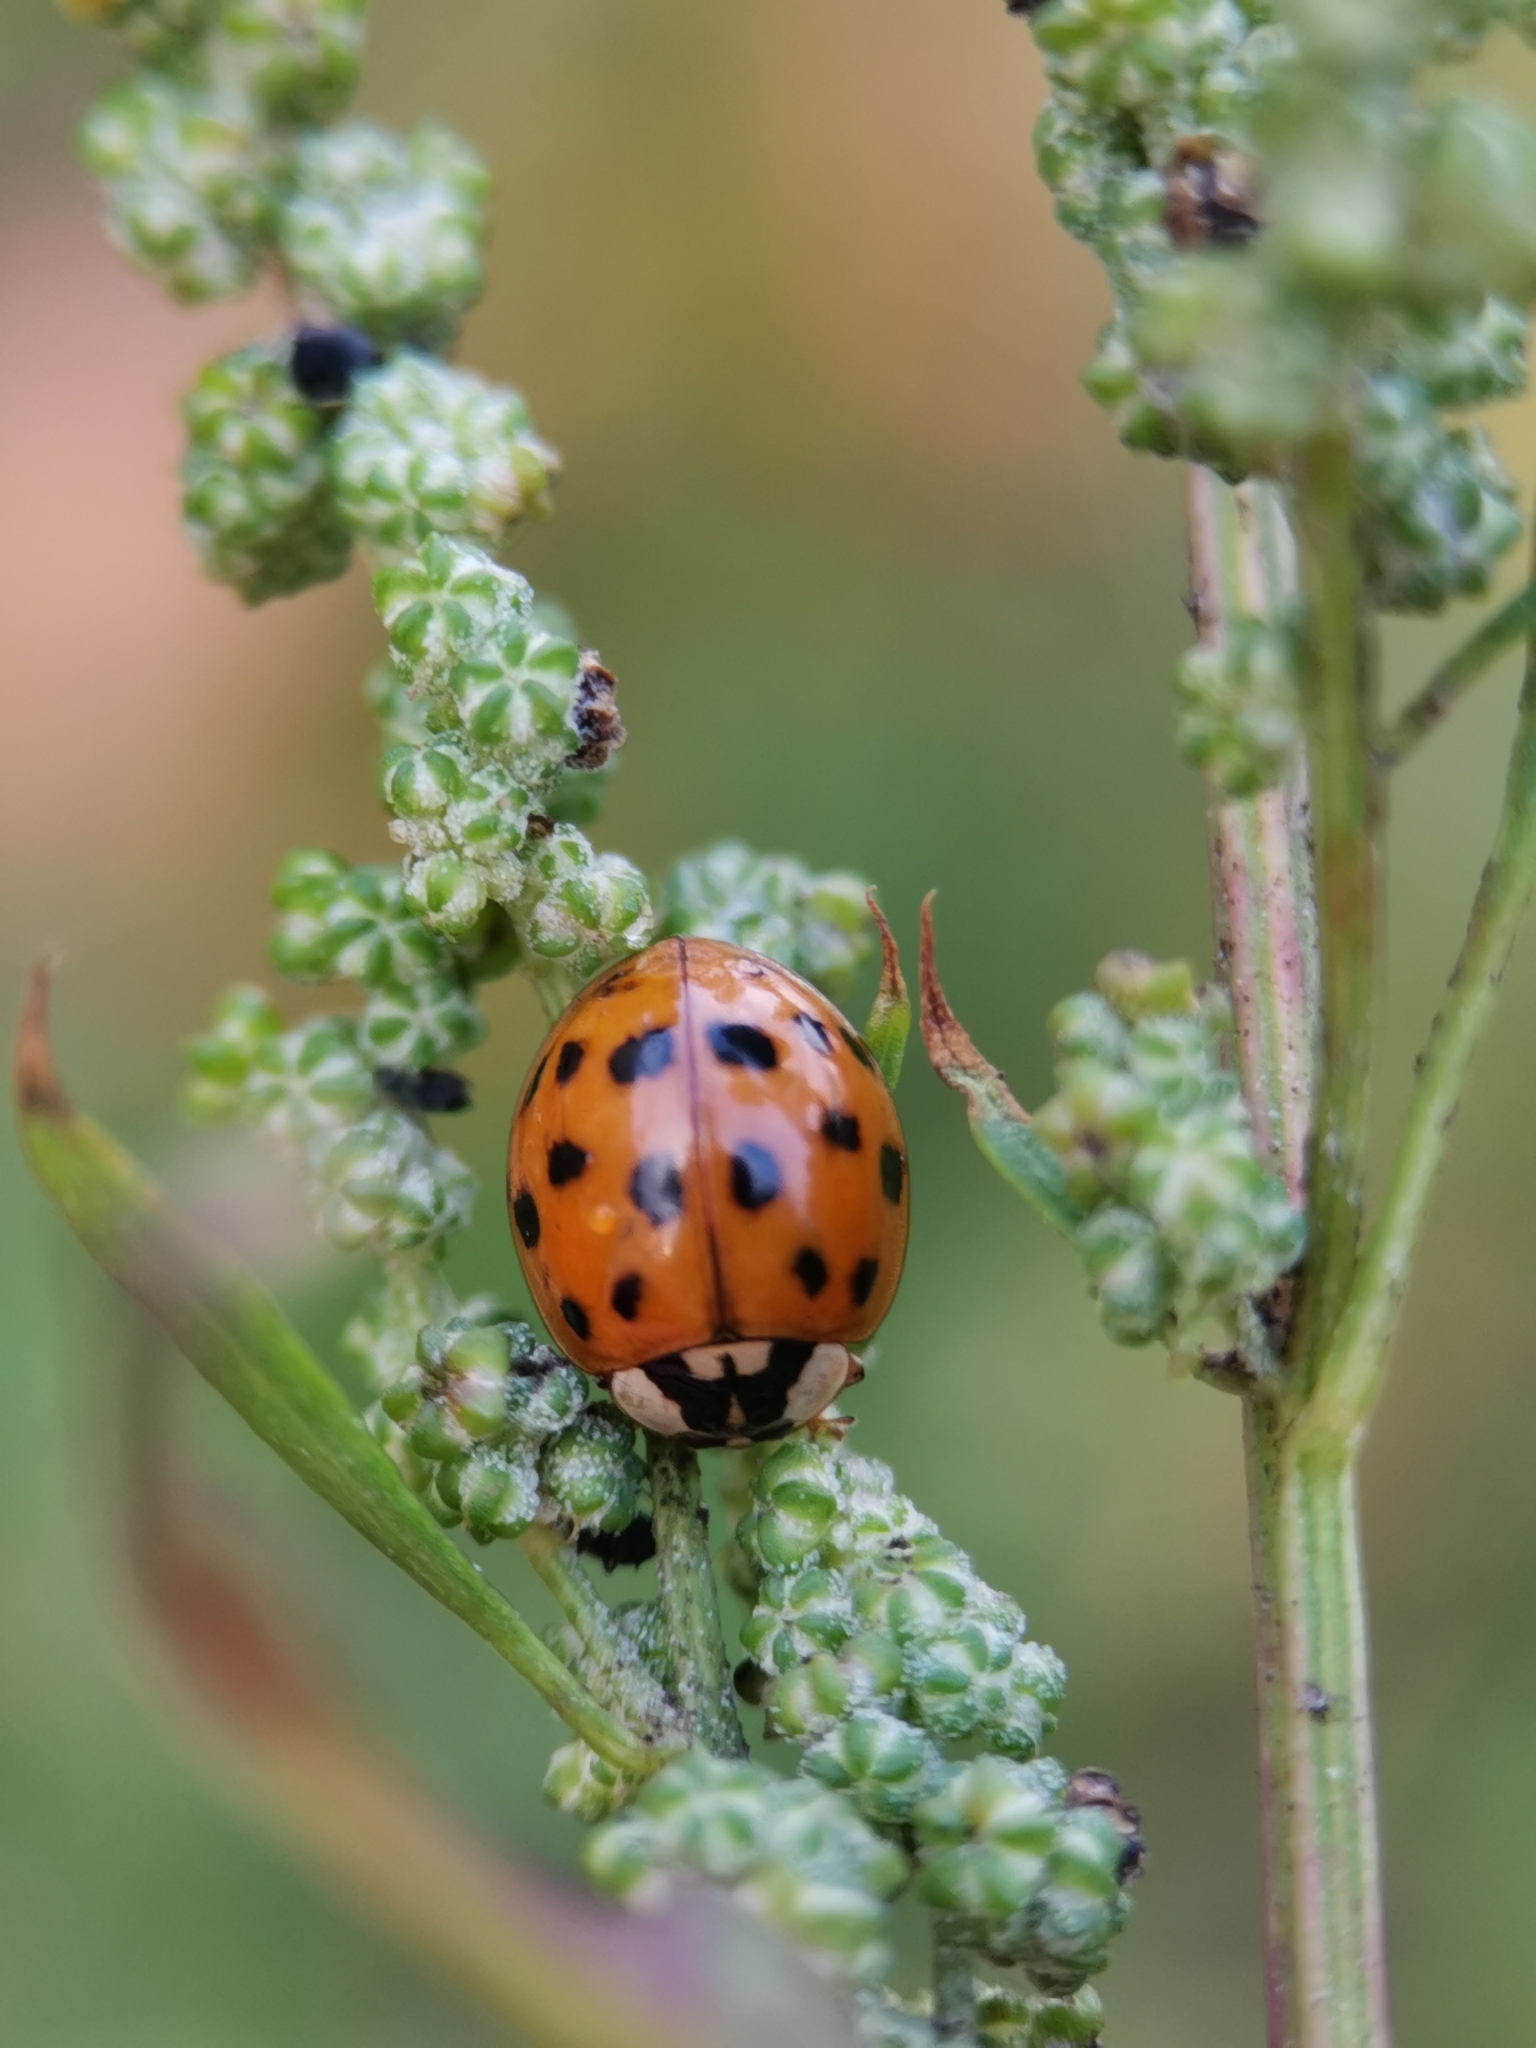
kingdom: Animalia
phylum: Arthropoda
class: Insecta
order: Coleoptera
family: Coccinellidae
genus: Harmonia
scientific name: Harmonia axyridis
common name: Harlequin ladybird
